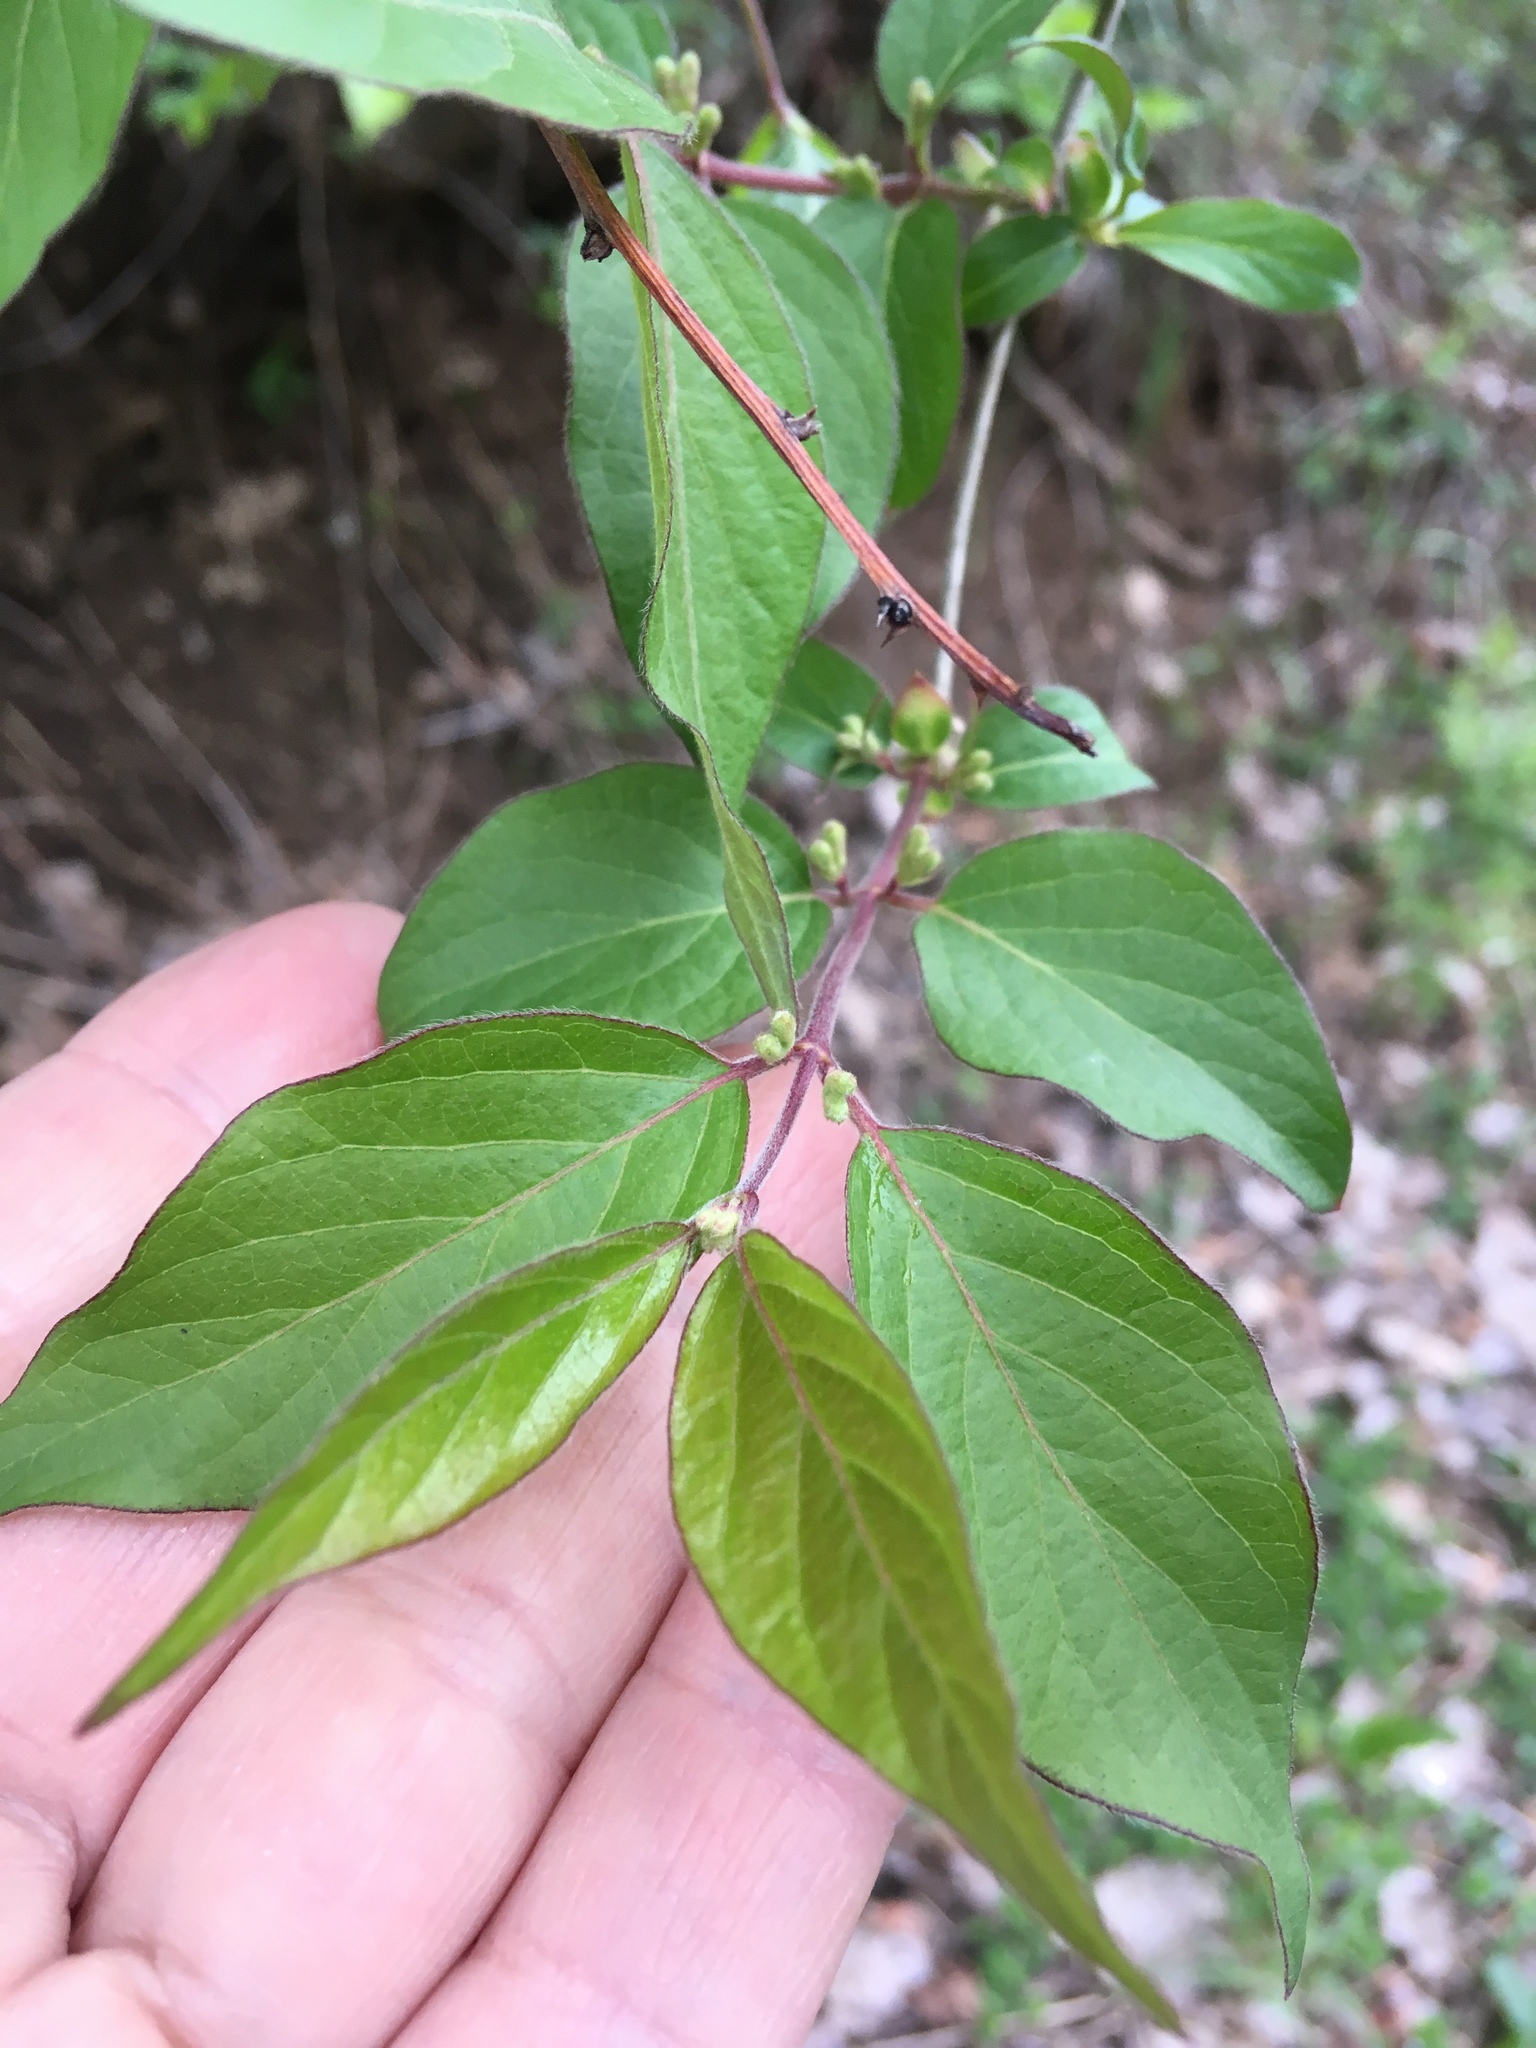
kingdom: Plantae
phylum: Tracheophyta
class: Magnoliopsida
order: Dipsacales
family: Caprifoliaceae
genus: Lonicera
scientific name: Lonicera maackii
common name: Amur honeysuckle
